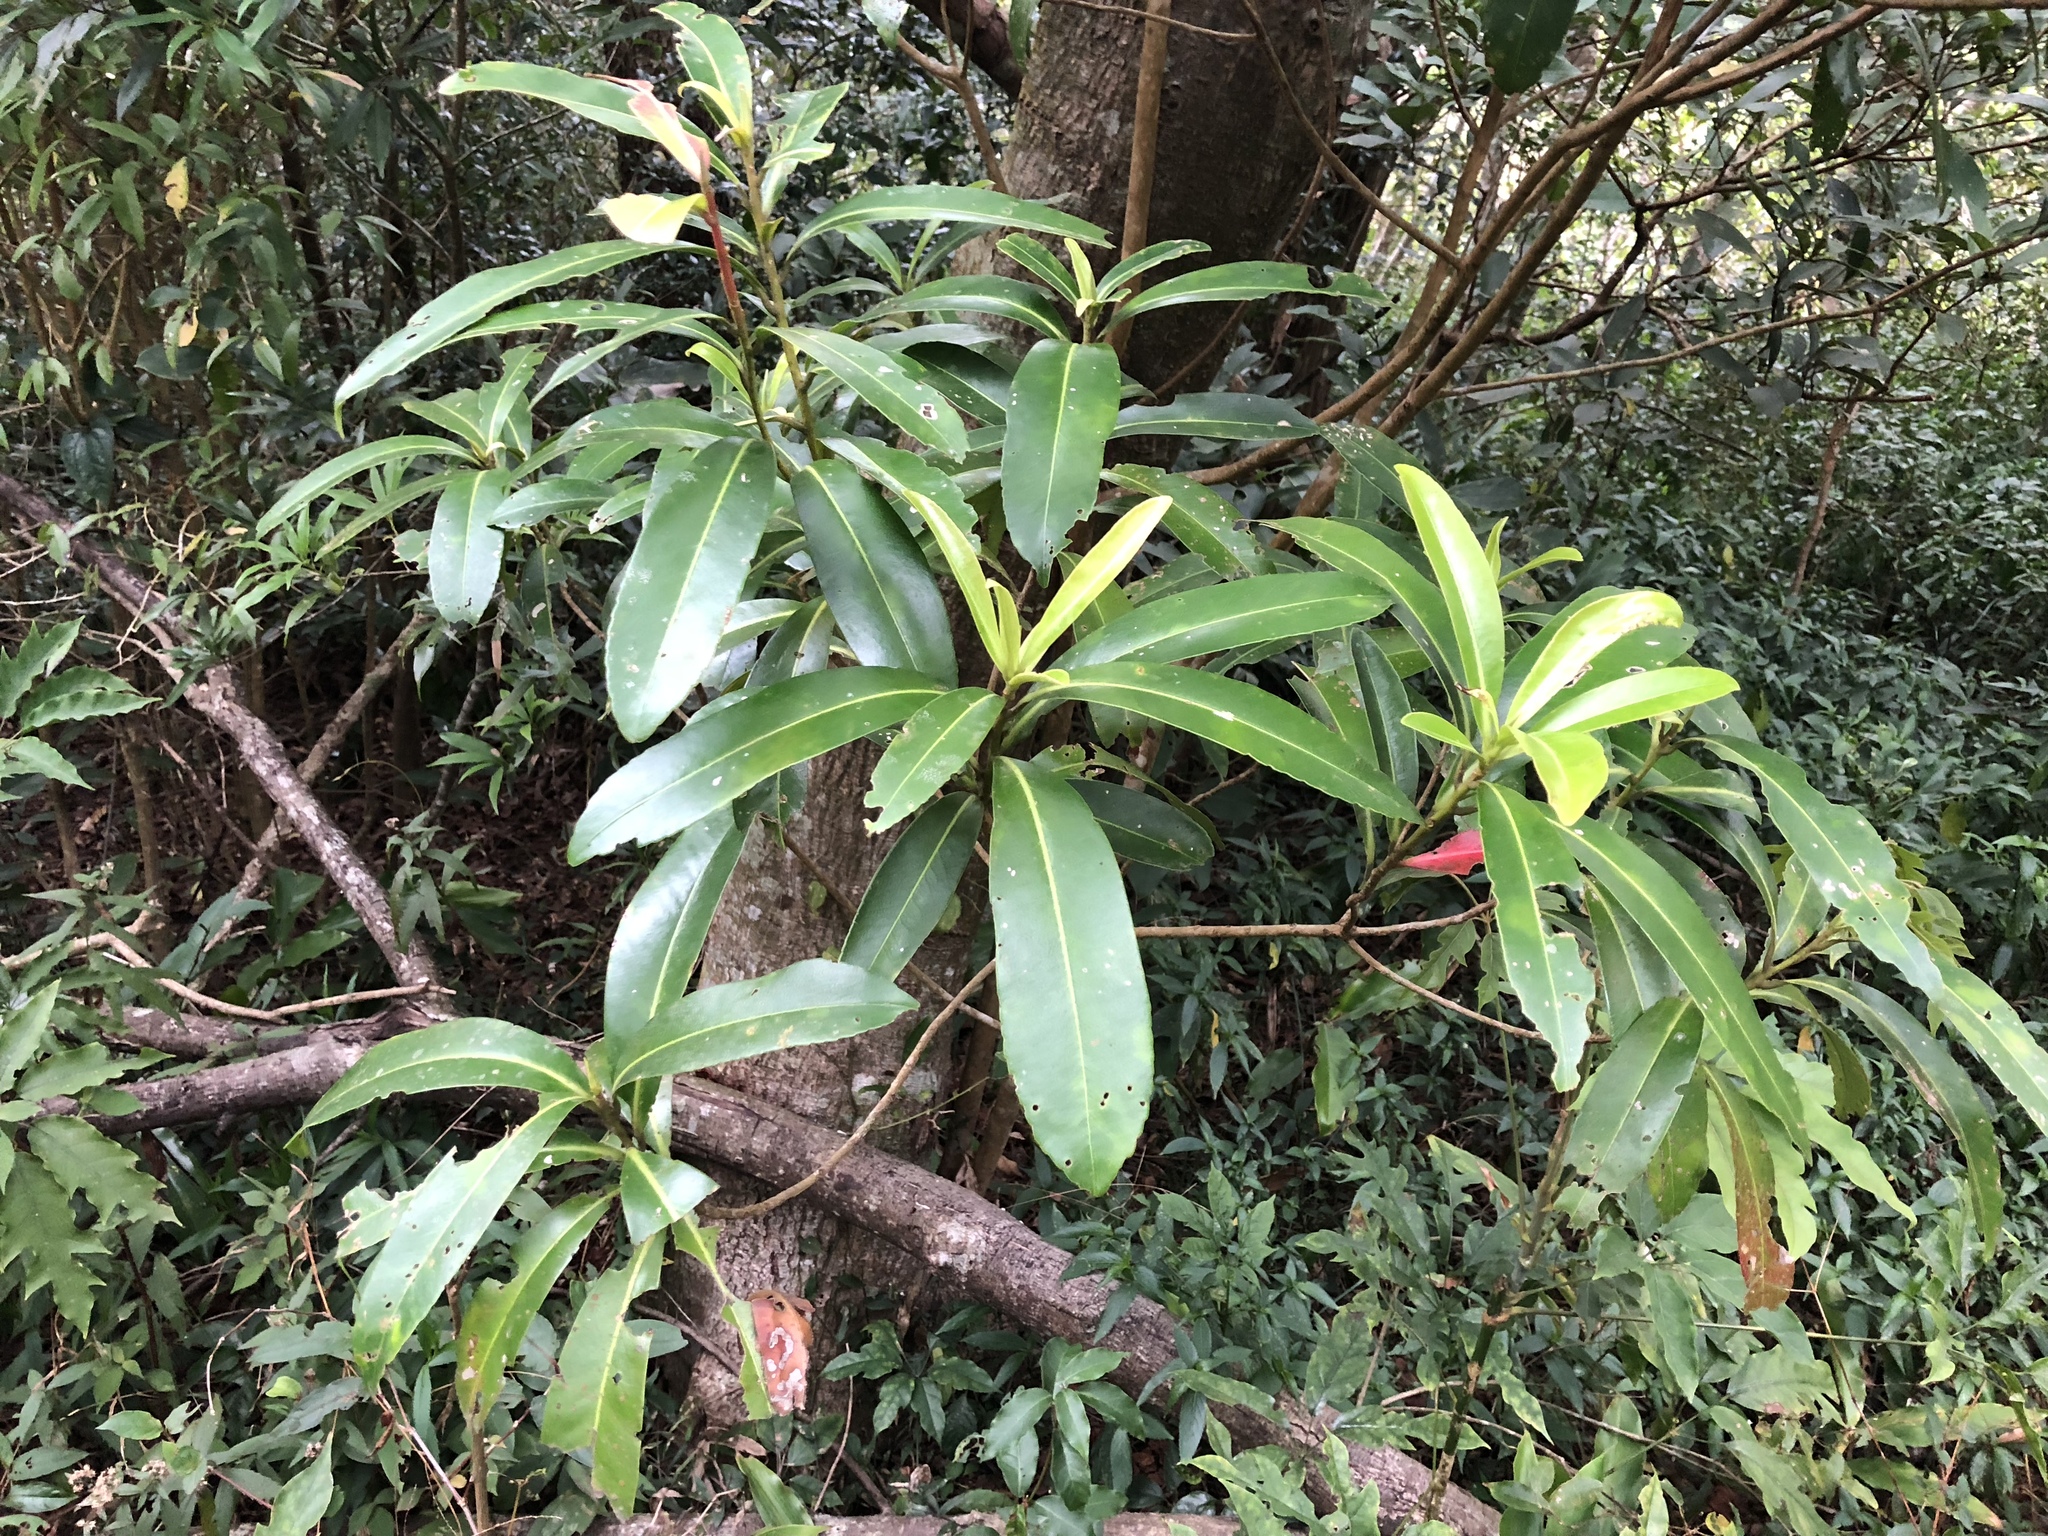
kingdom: Plantae
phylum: Tracheophyta
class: Magnoliopsida
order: Ericales
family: Theaceae
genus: Polyspora
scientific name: Polyspora axillaris
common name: Fried egg tree
